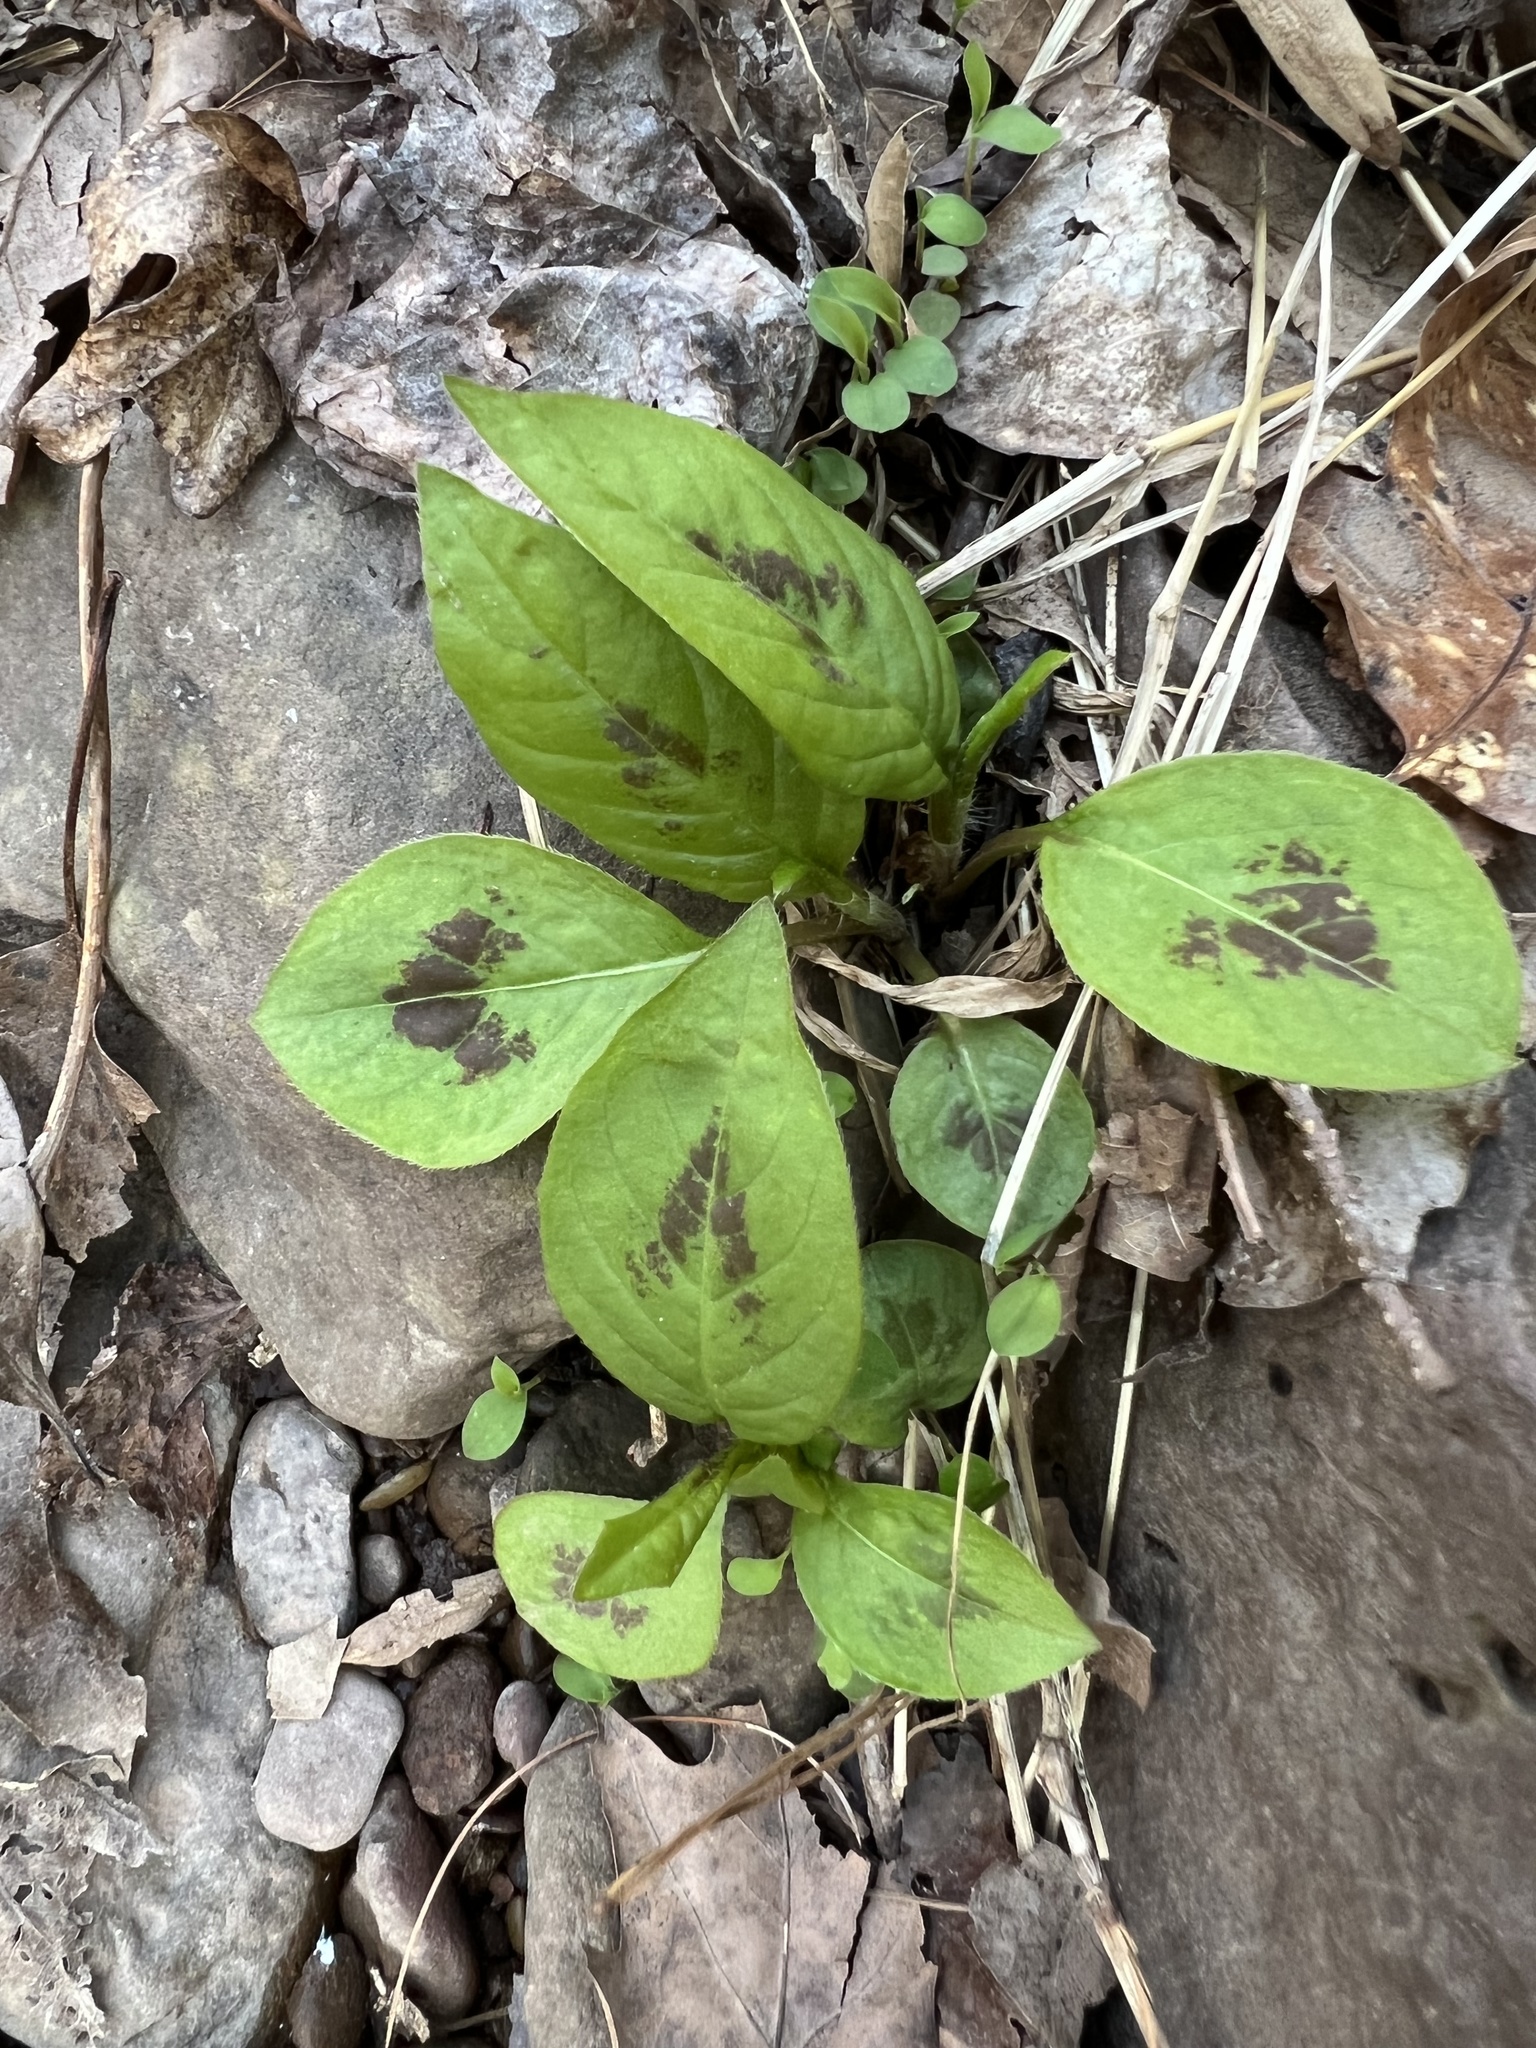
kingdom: Plantae
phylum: Tracheophyta
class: Magnoliopsida
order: Caryophyllales
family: Polygonaceae
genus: Persicaria
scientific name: Persicaria virginiana
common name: Jumpseed
